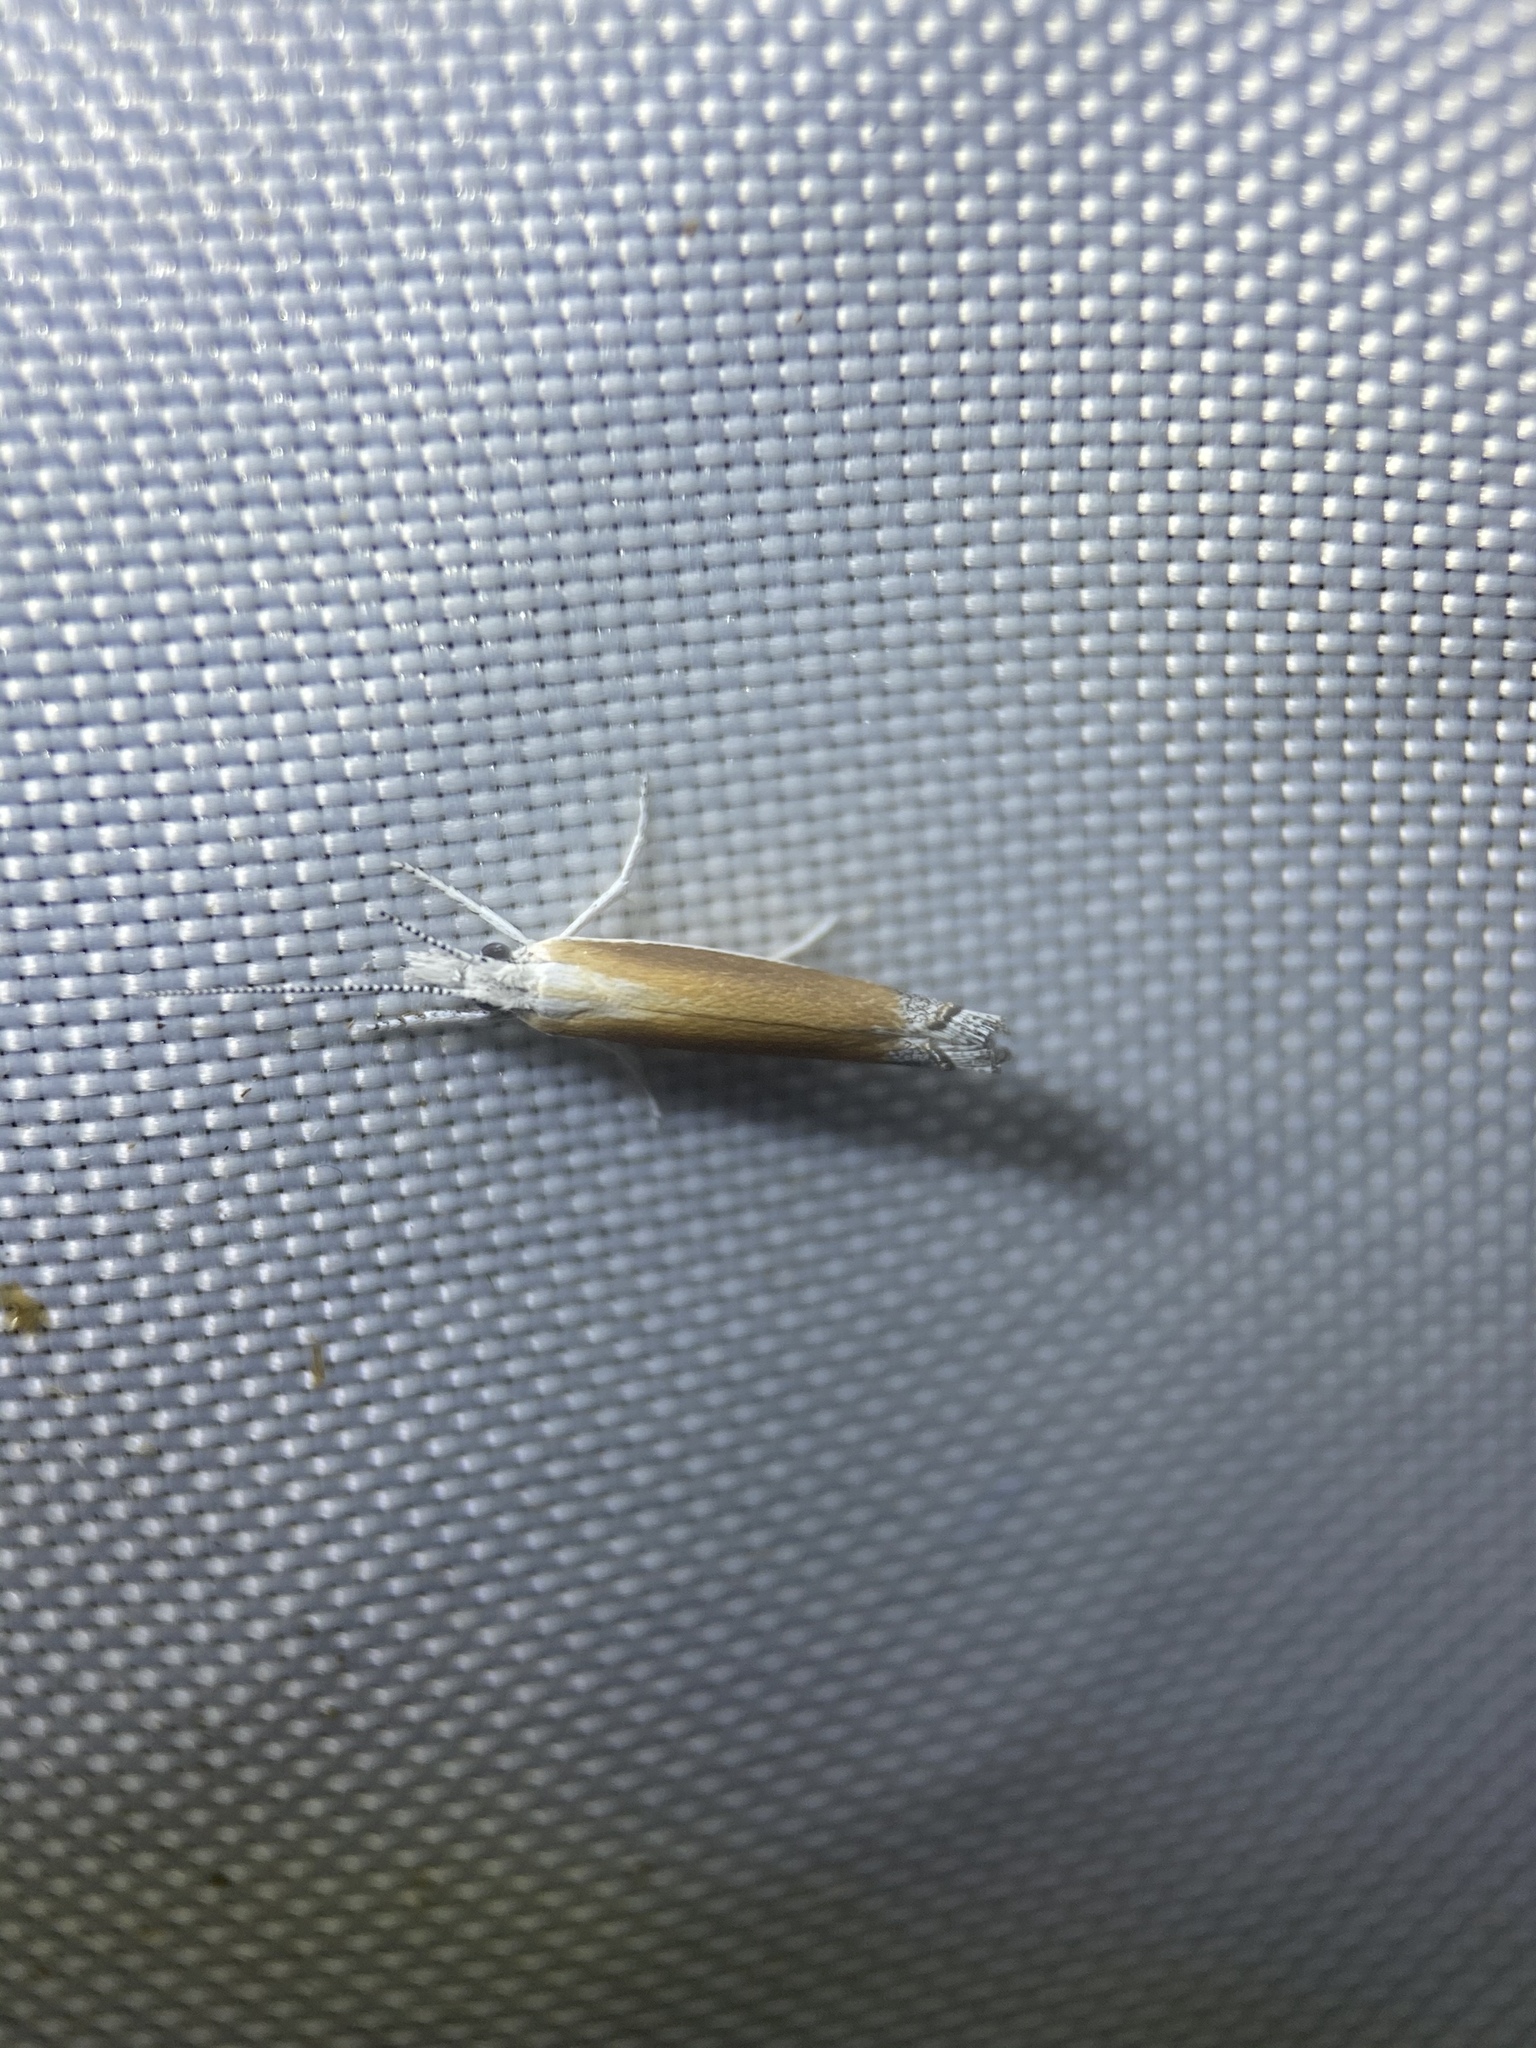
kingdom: Animalia
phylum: Arthropoda
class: Insecta
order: Lepidoptera
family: Ypsolophidae
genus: Ypsolopha
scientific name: Ypsolopha delicatella
